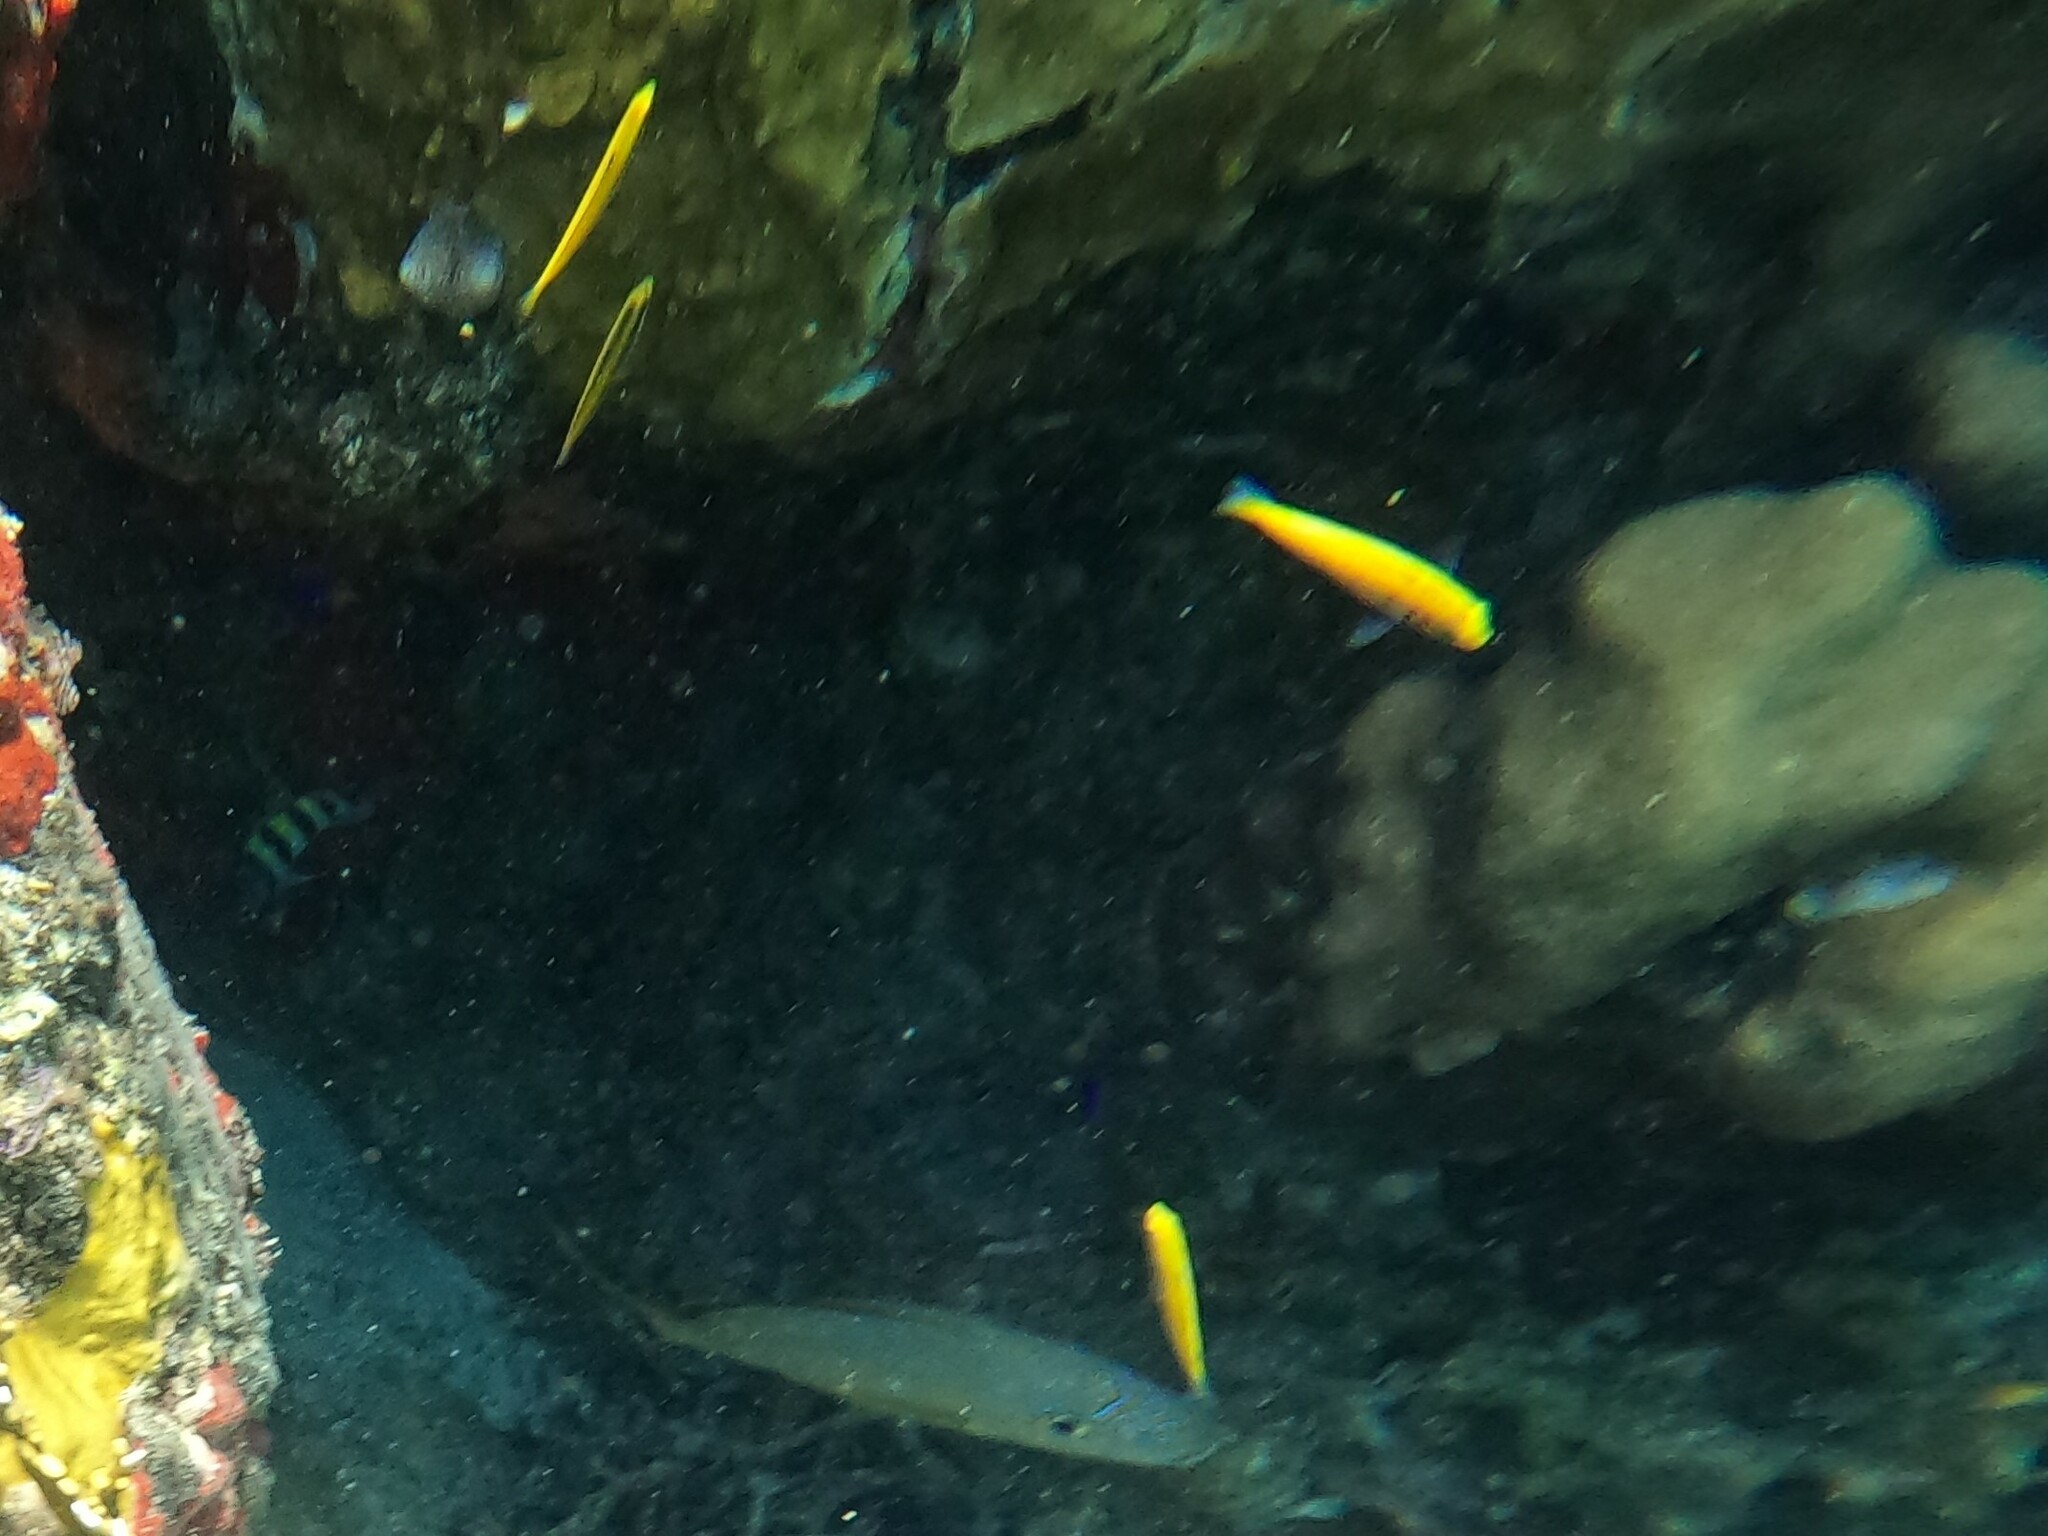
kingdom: Animalia
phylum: Chordata
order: Perciformes
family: Labridae
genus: Thalassoma
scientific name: Thalassoma bifasciatum
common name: Bluehead wrasse
